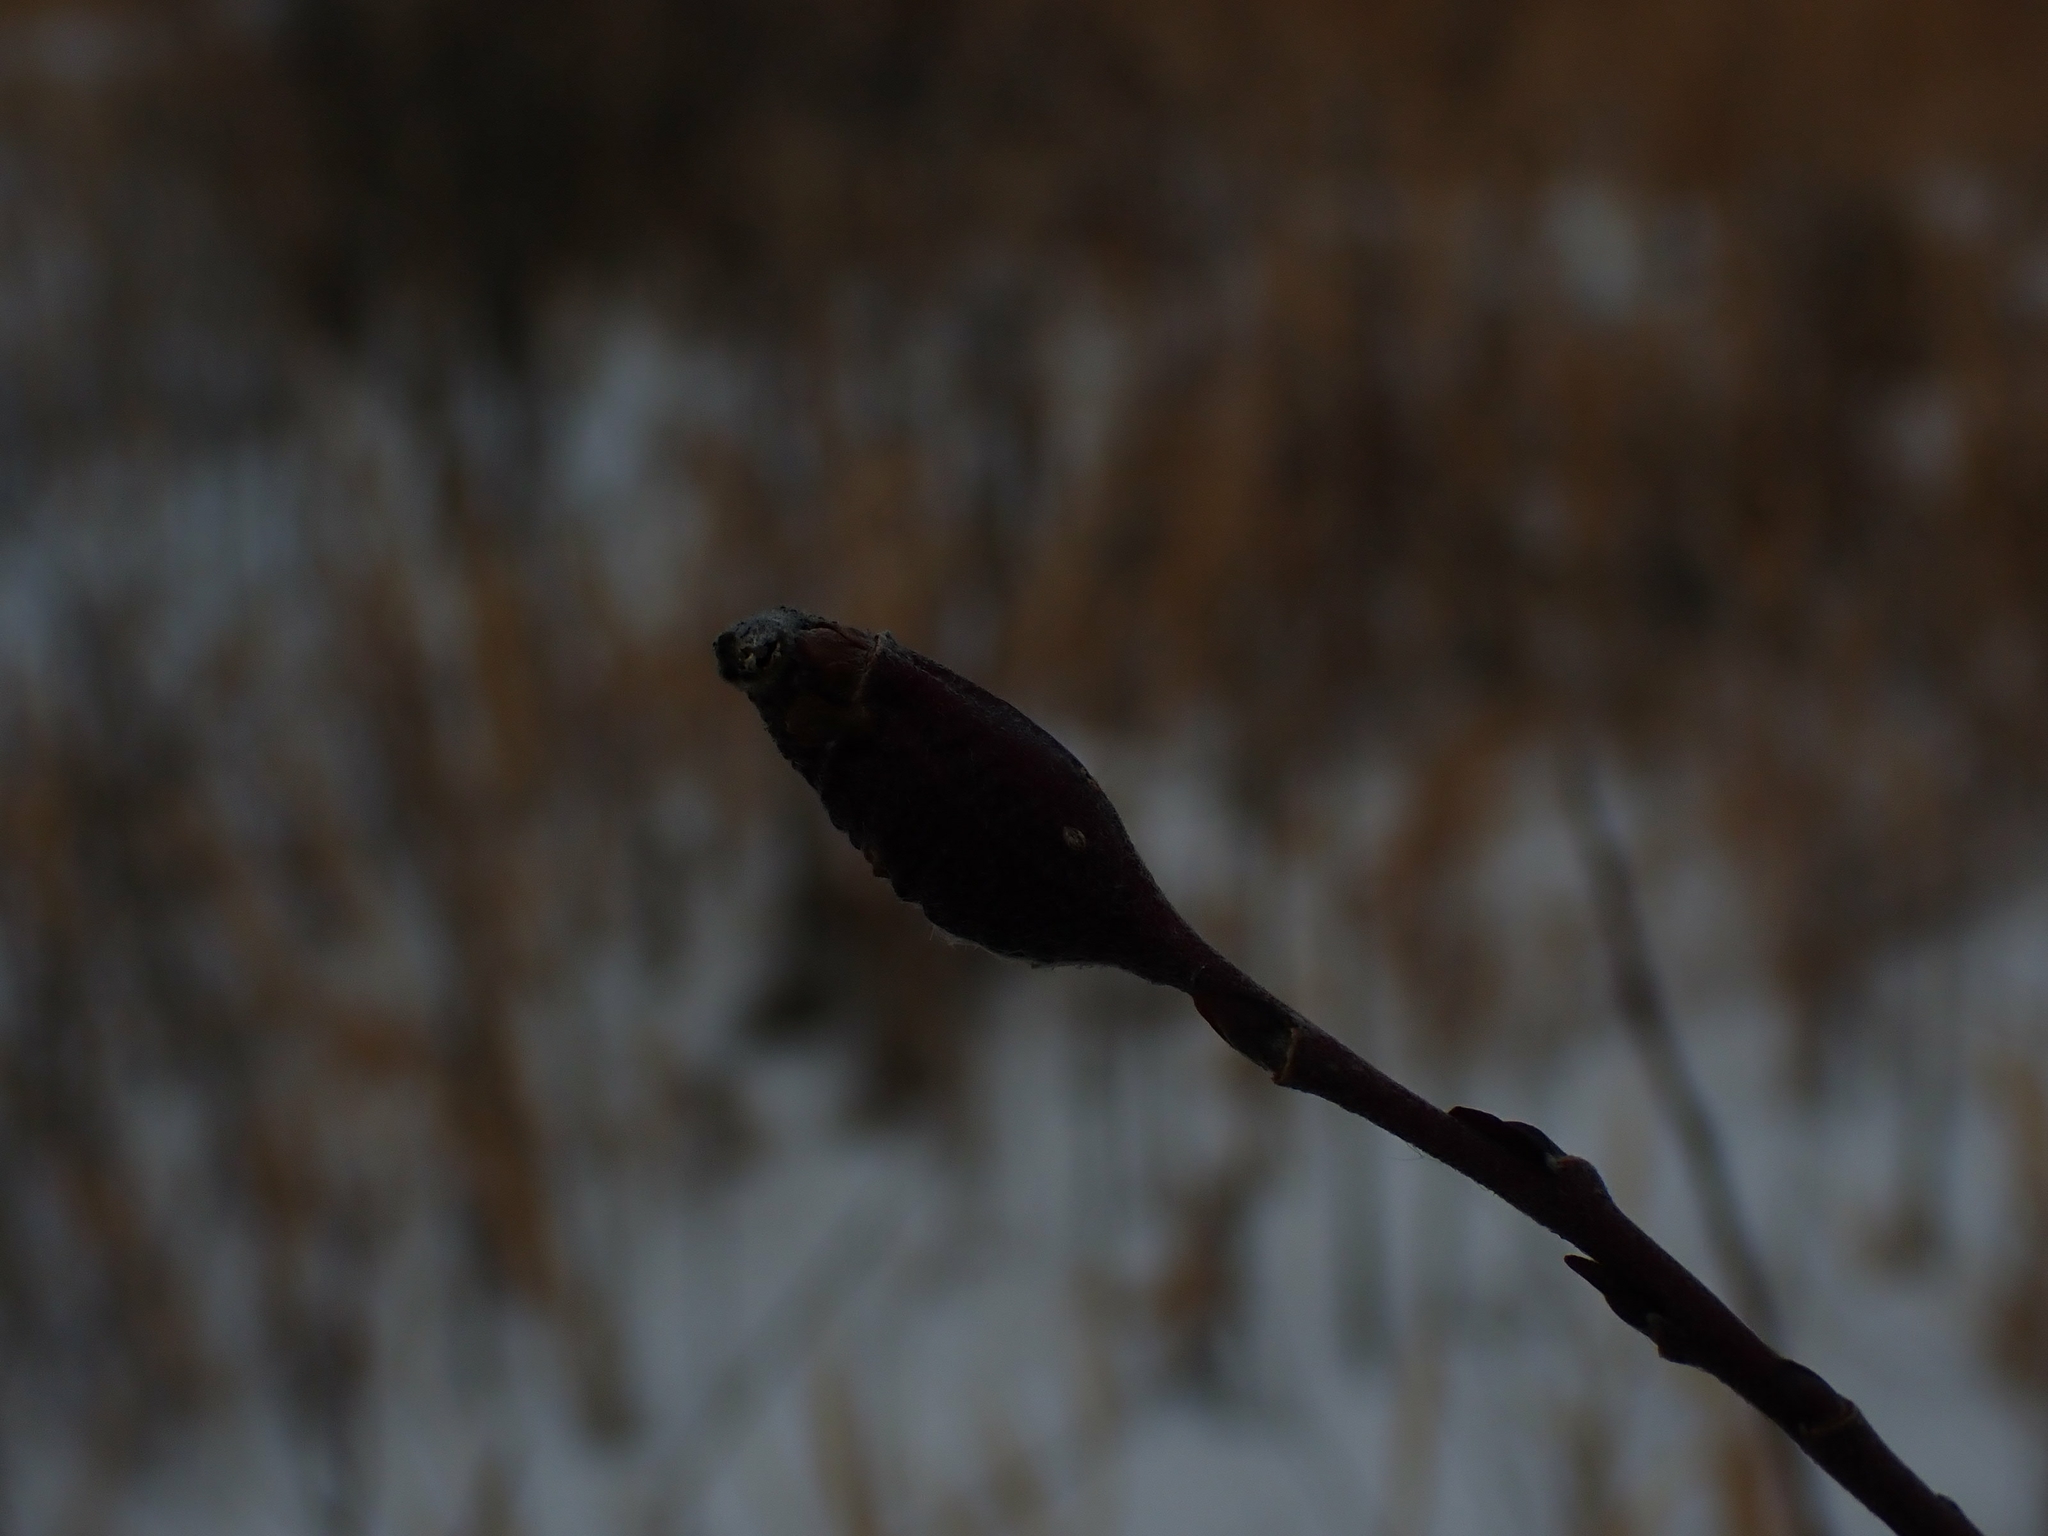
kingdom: Animalia
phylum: Arthropoda
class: Insecta
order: Diptera
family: Cecidomyiidae
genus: Thecodiplosis
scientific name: Thecodiplosis pinirigidae
